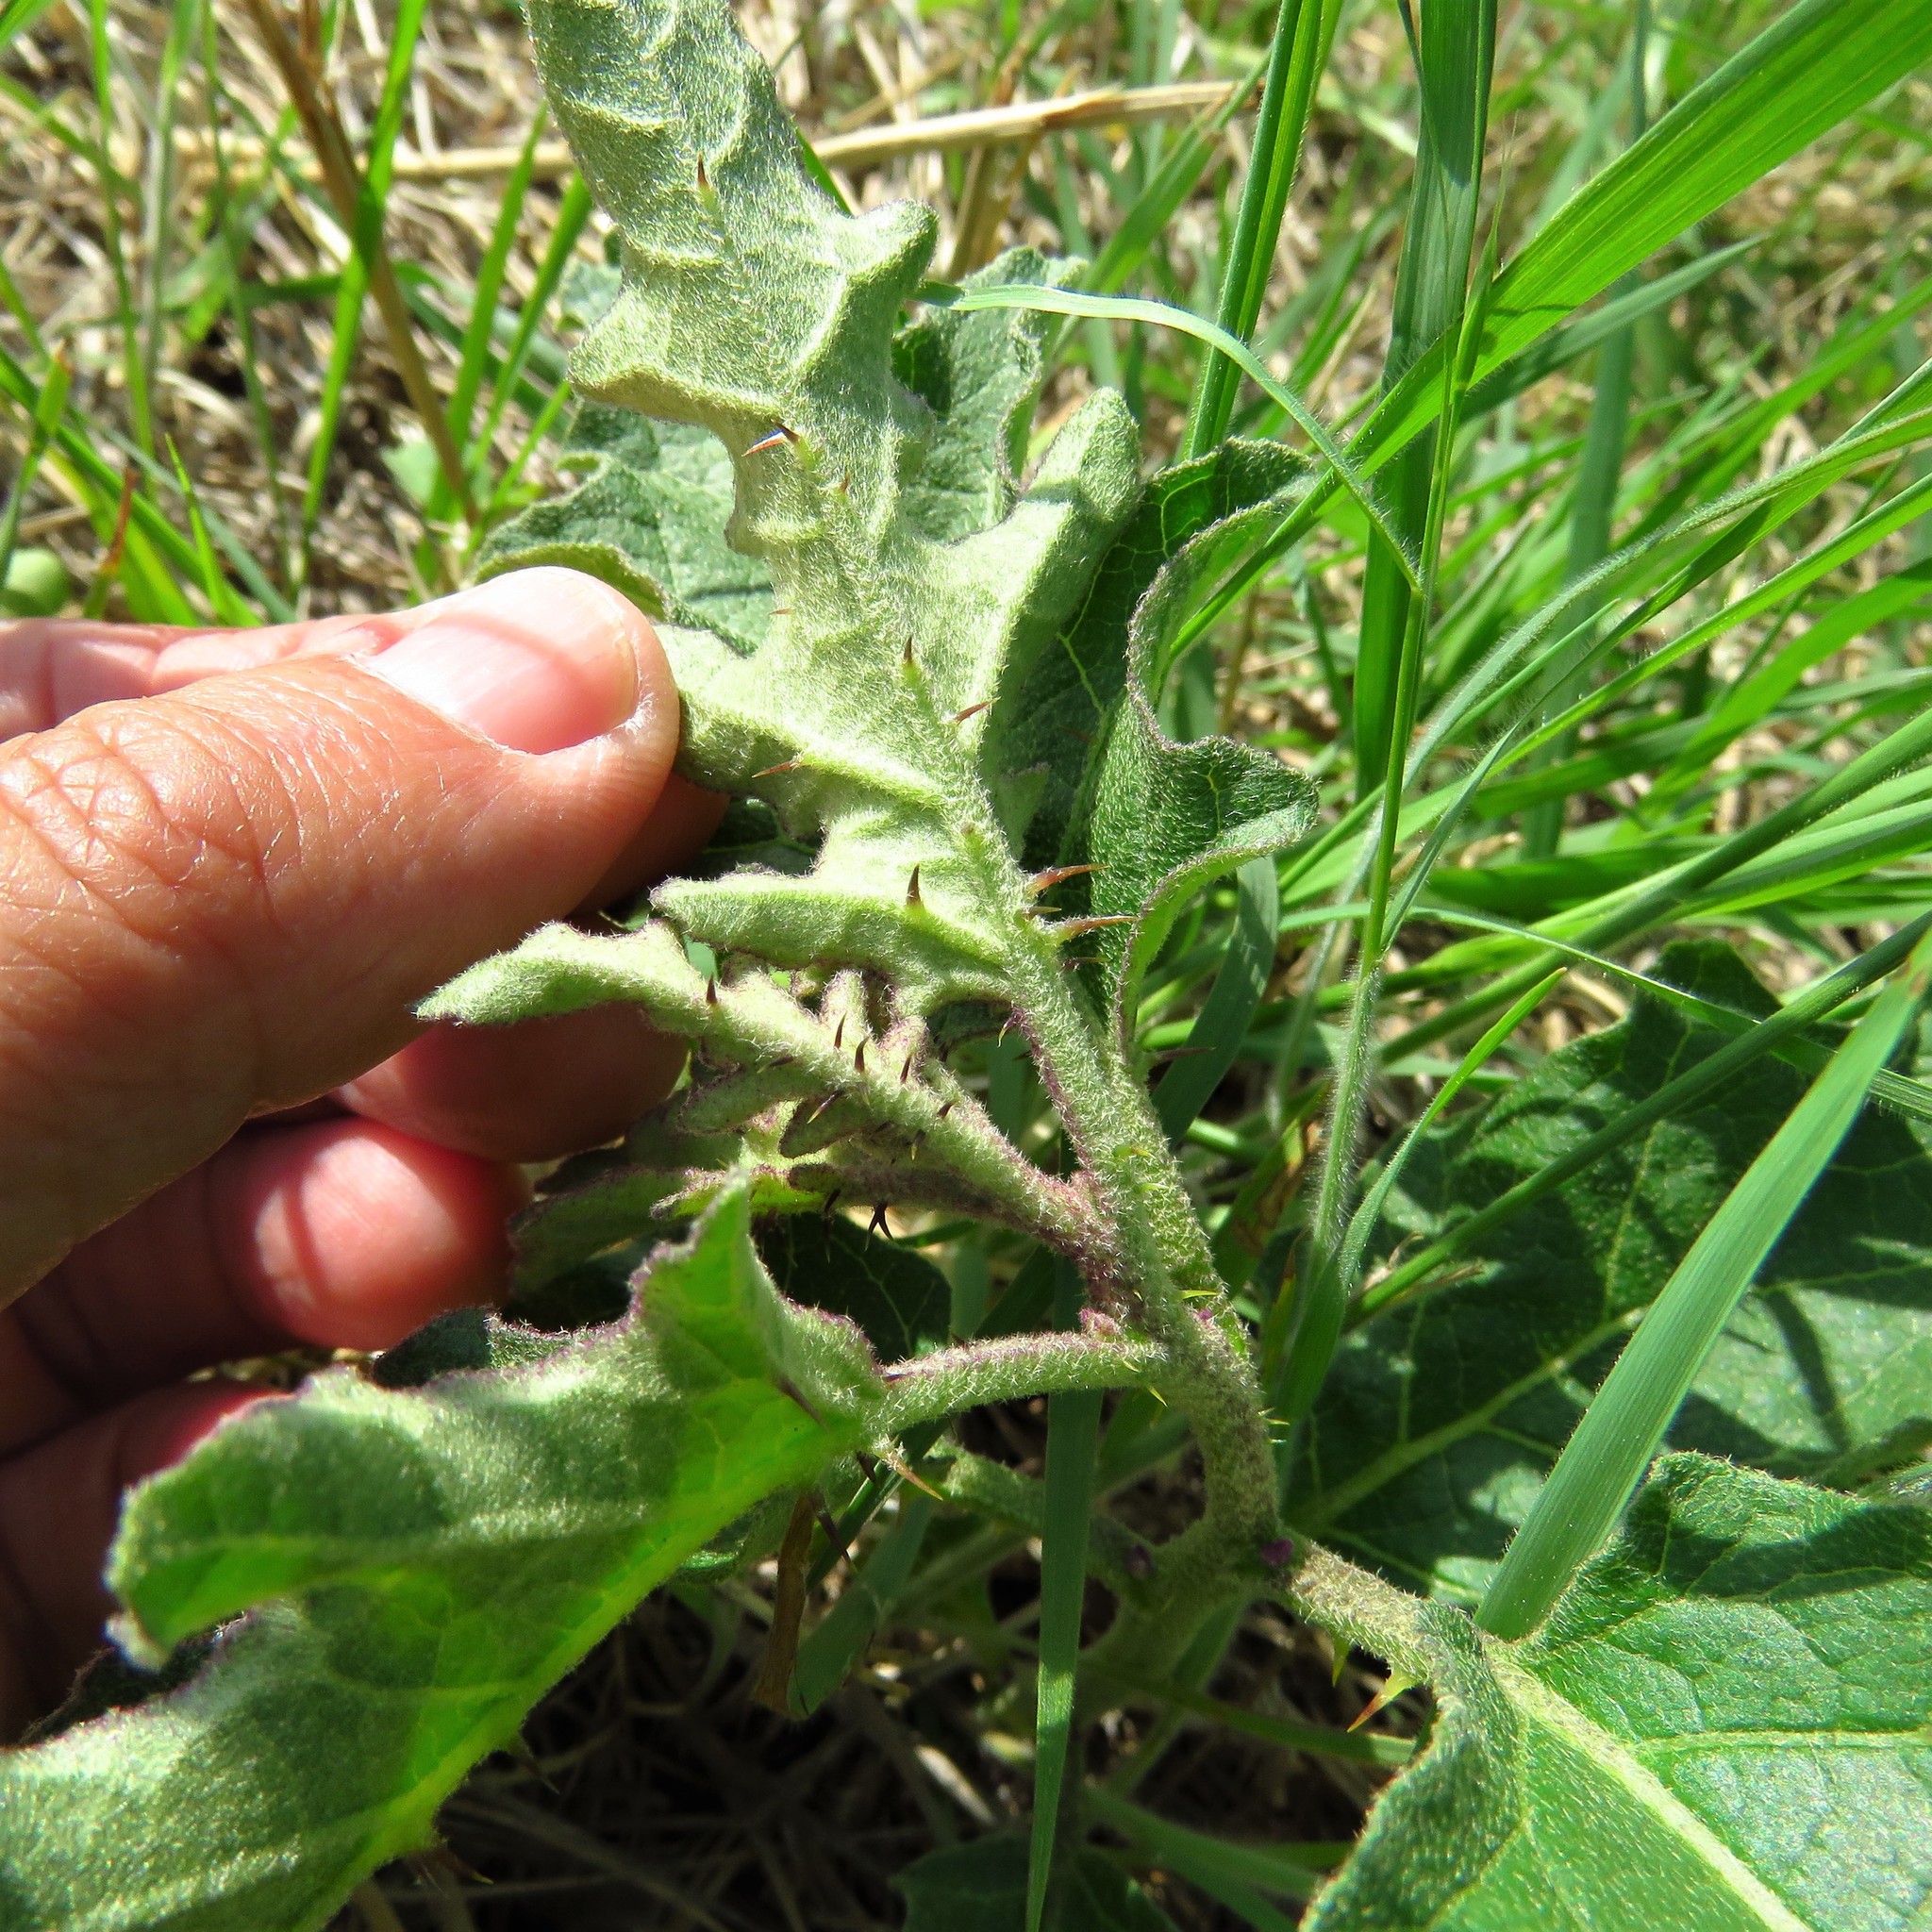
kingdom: Plantae
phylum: Tracheophyta
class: Magnoliopsida
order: Solanales
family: Solanaceae
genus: Solanum
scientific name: Solanum dimidiatum
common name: Carolina horse-nettle
